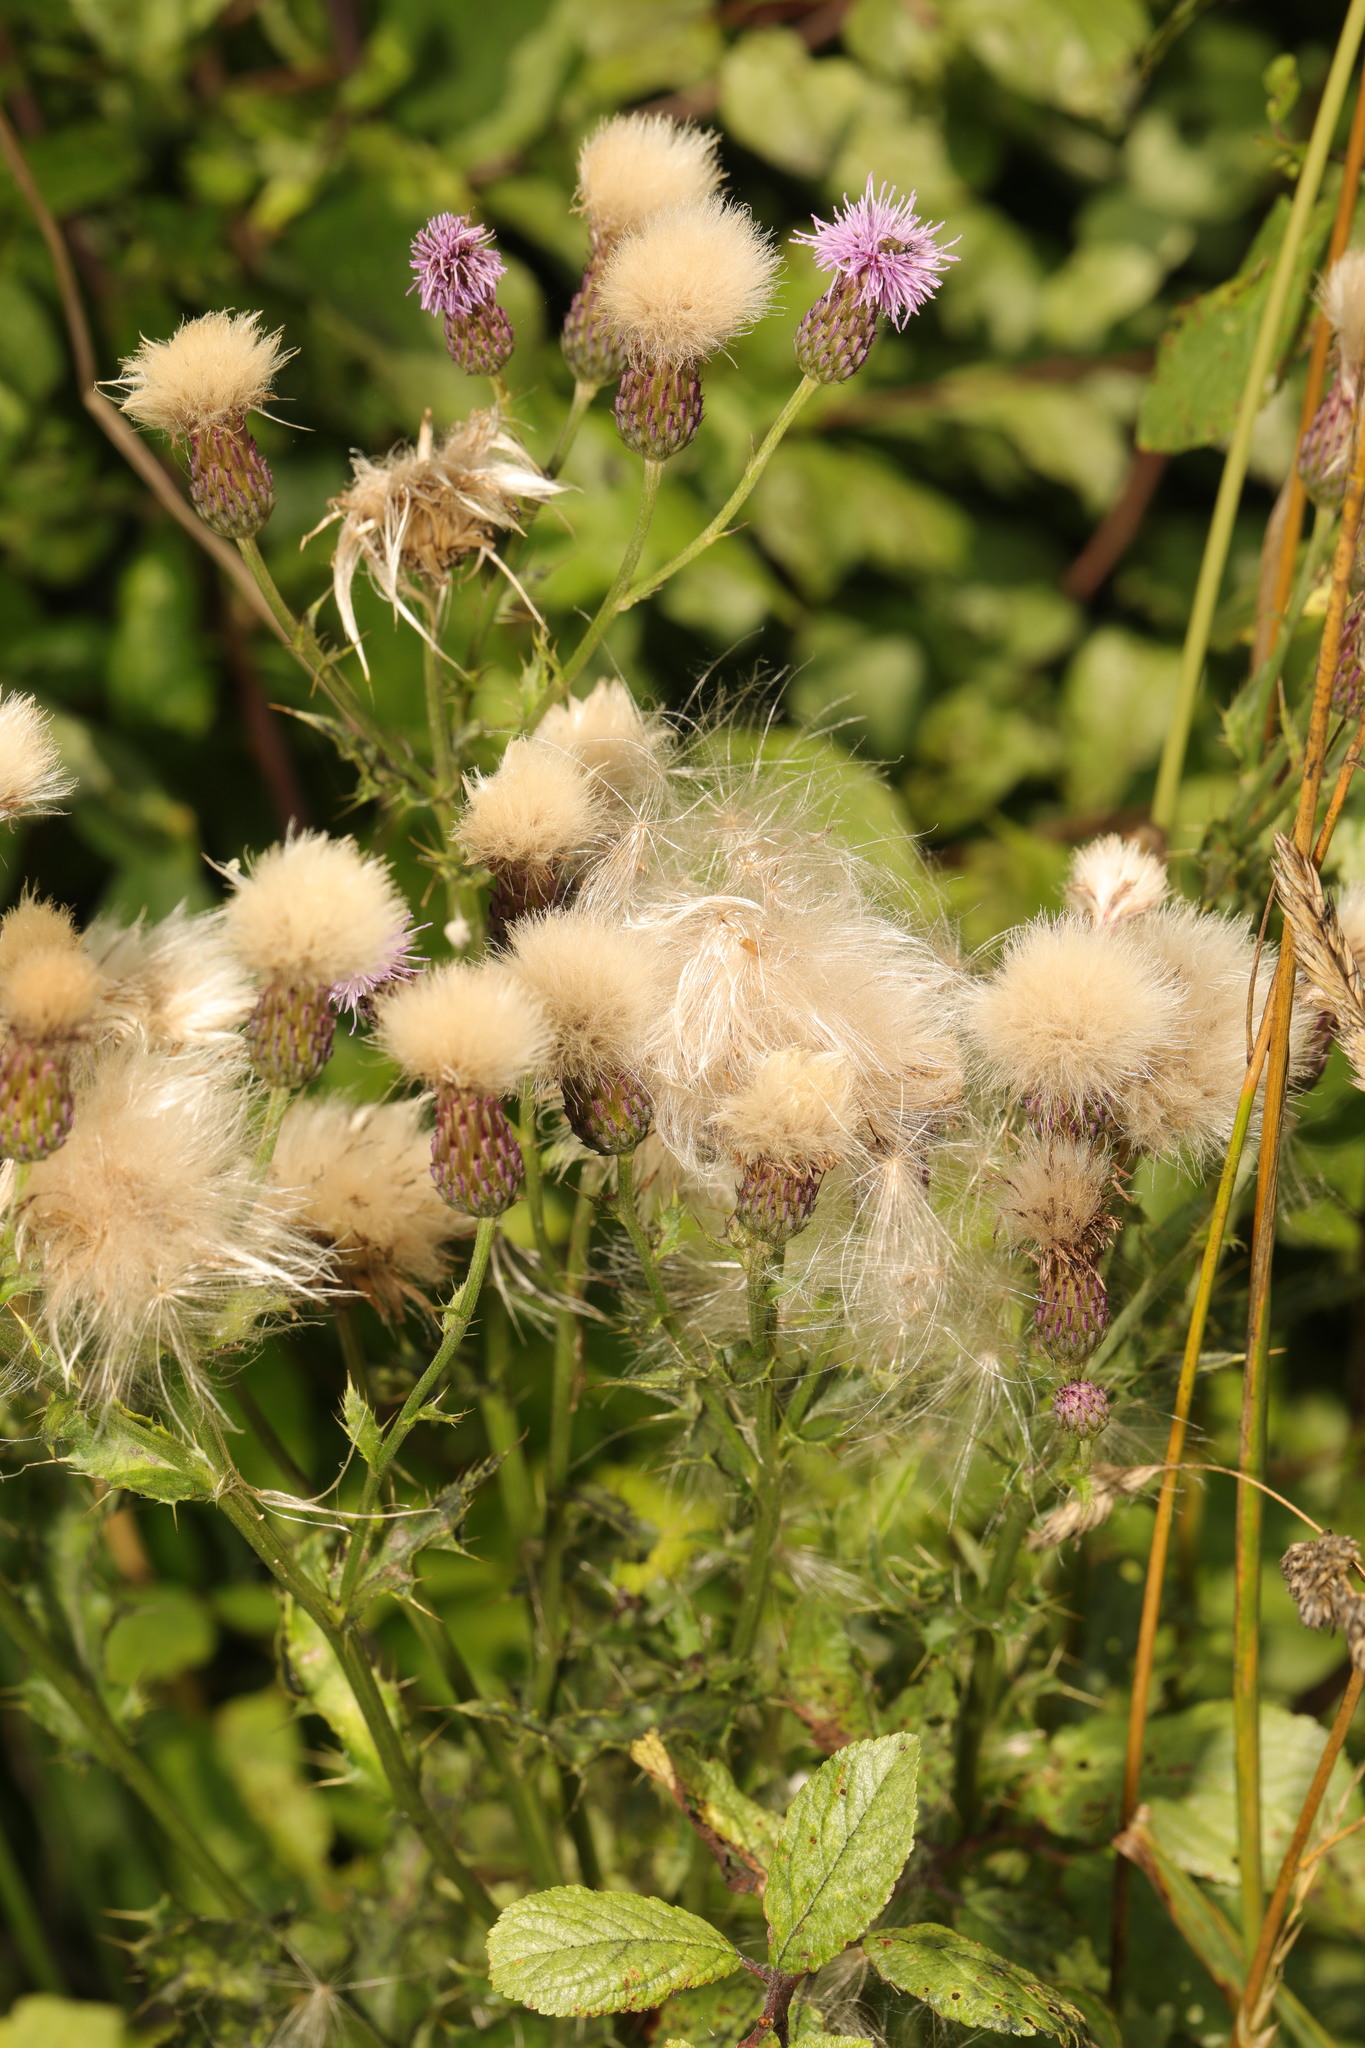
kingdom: Plantae
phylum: Tracheophyta
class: Magnoliopsida
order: Asterales
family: Asteraceae
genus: Cirsium
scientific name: Cirsium arvense
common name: Creeping thistle
